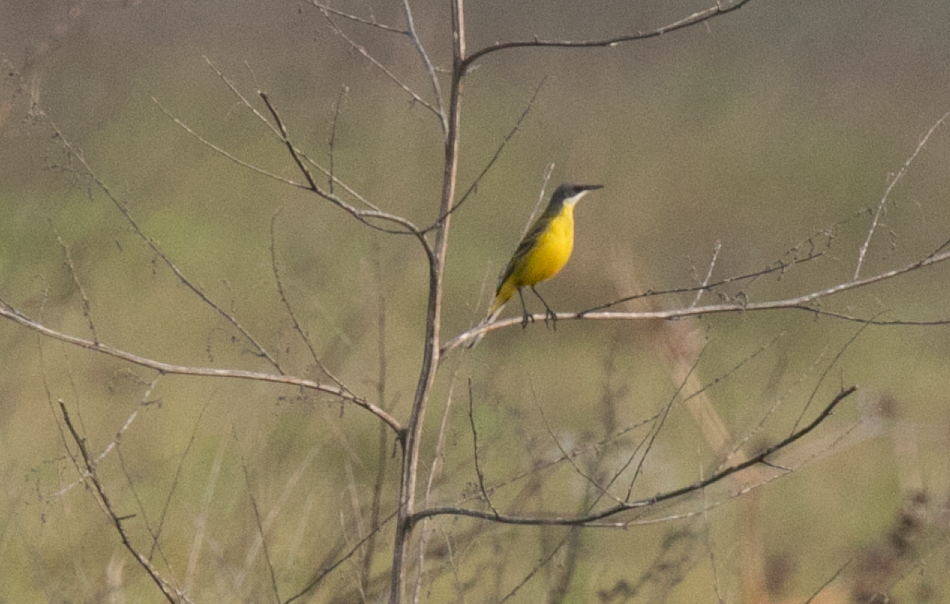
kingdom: Animalia
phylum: Chordata
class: Aves
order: Passeriformes
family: Motacillidae
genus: Motacilla
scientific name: Motacilla flava
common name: Western yellow wagtail
